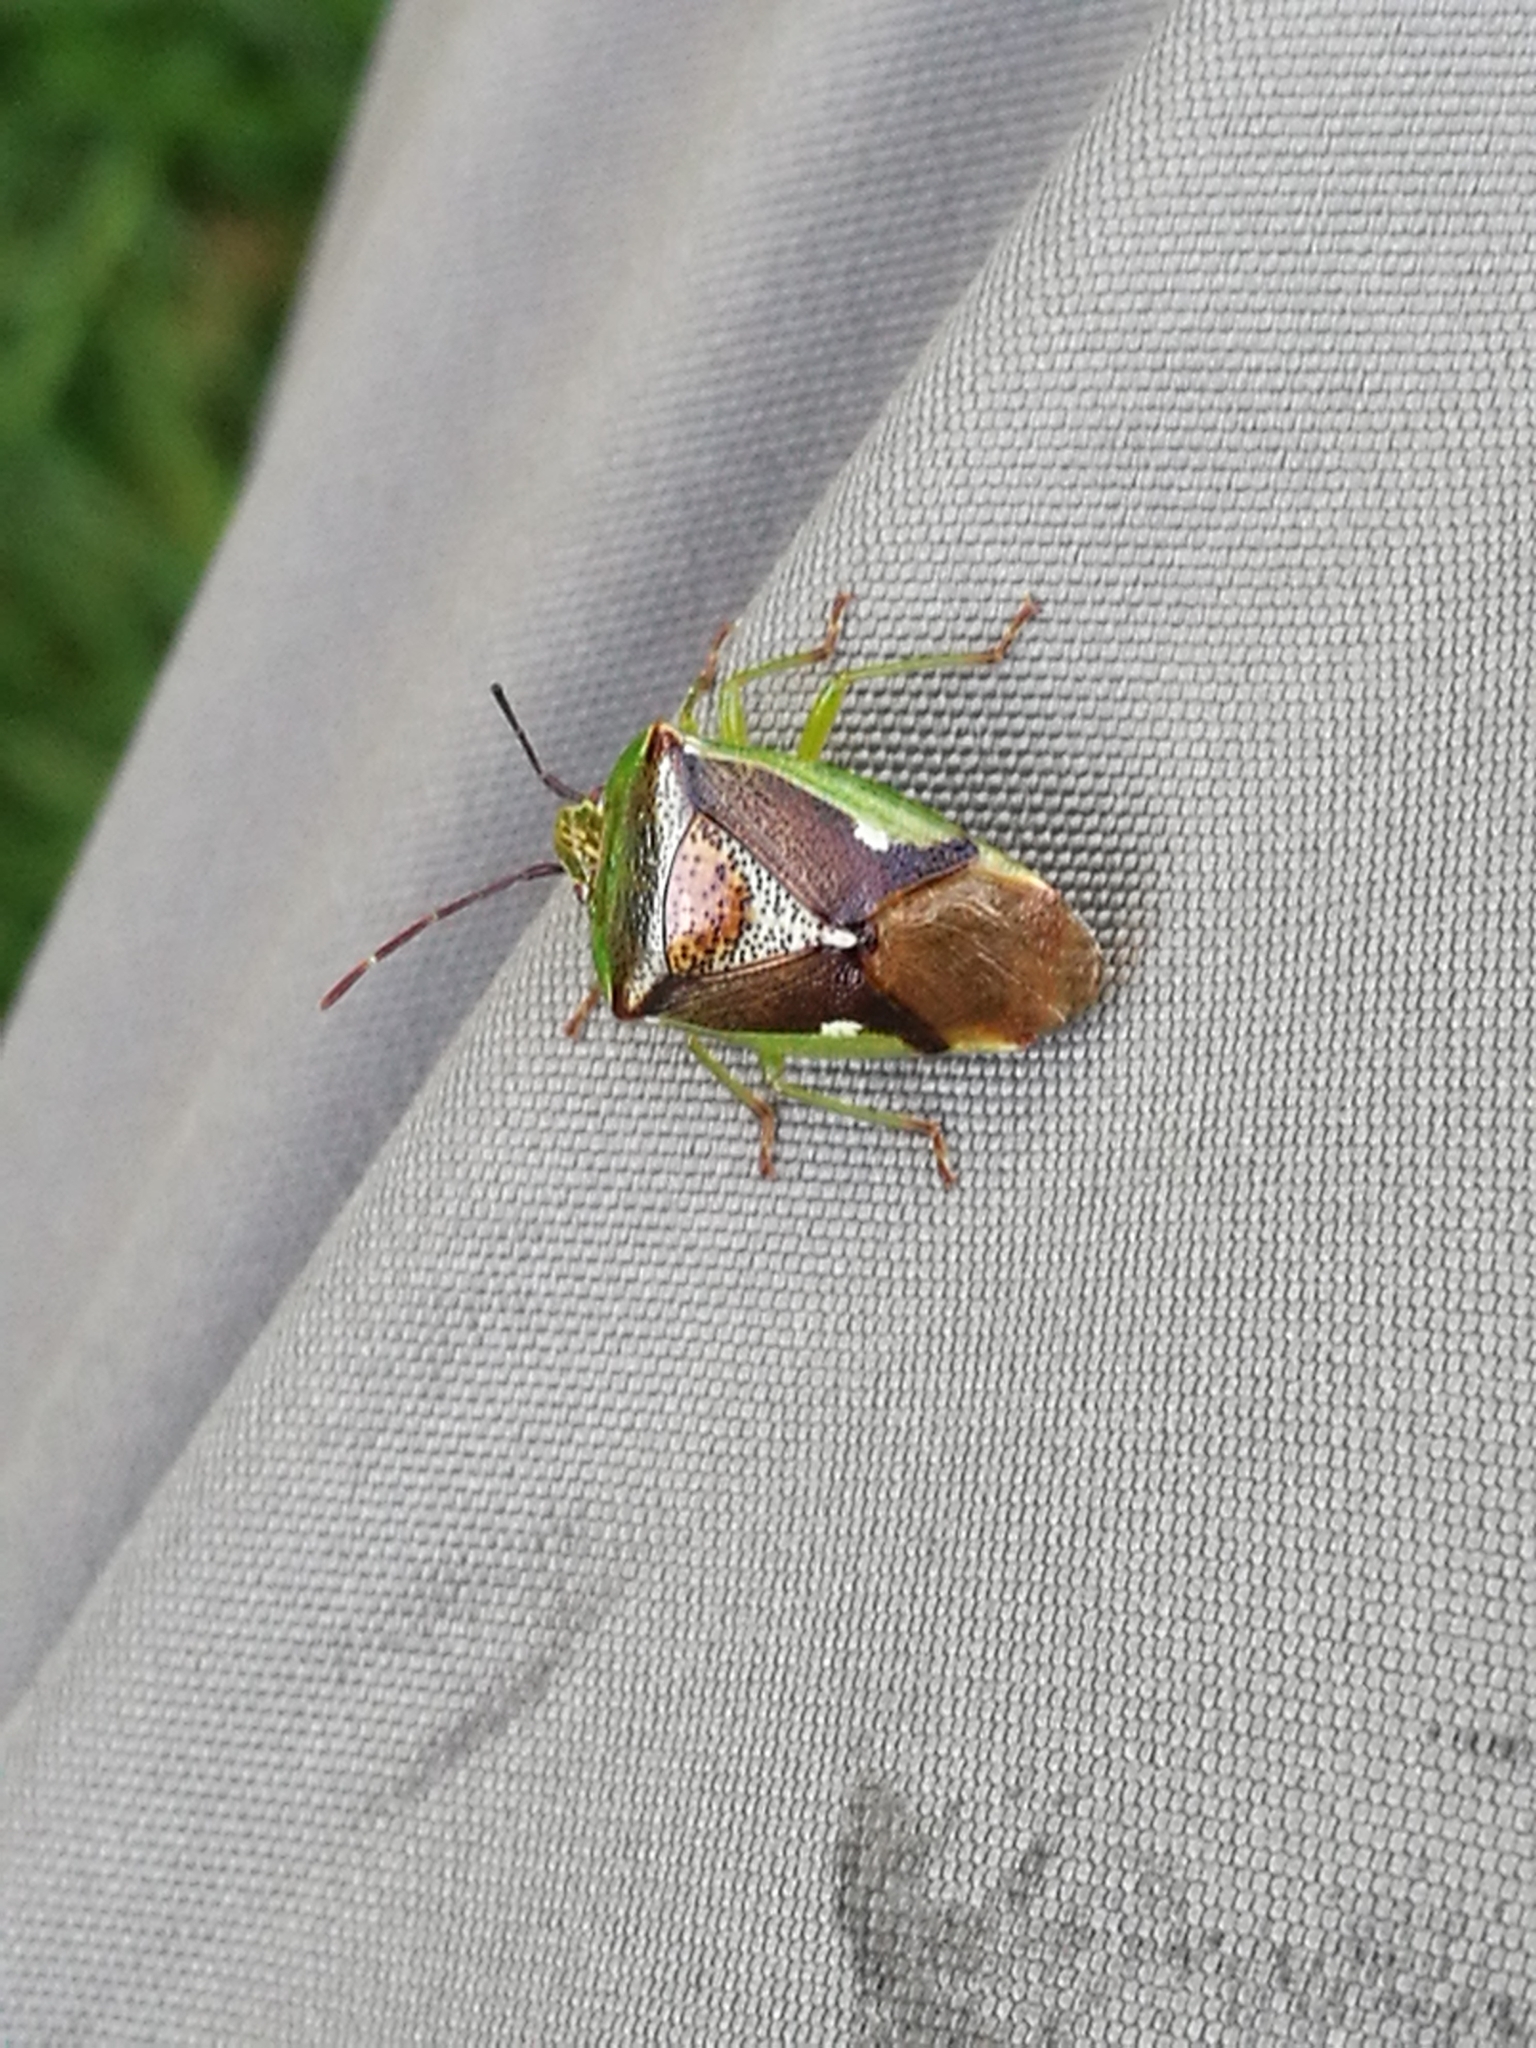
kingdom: Animalia
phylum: Arthropoda
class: Insecta
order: Hemiptera
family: Acanthosomatidae
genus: Oncacontias
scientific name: Oncacontias vittatus
